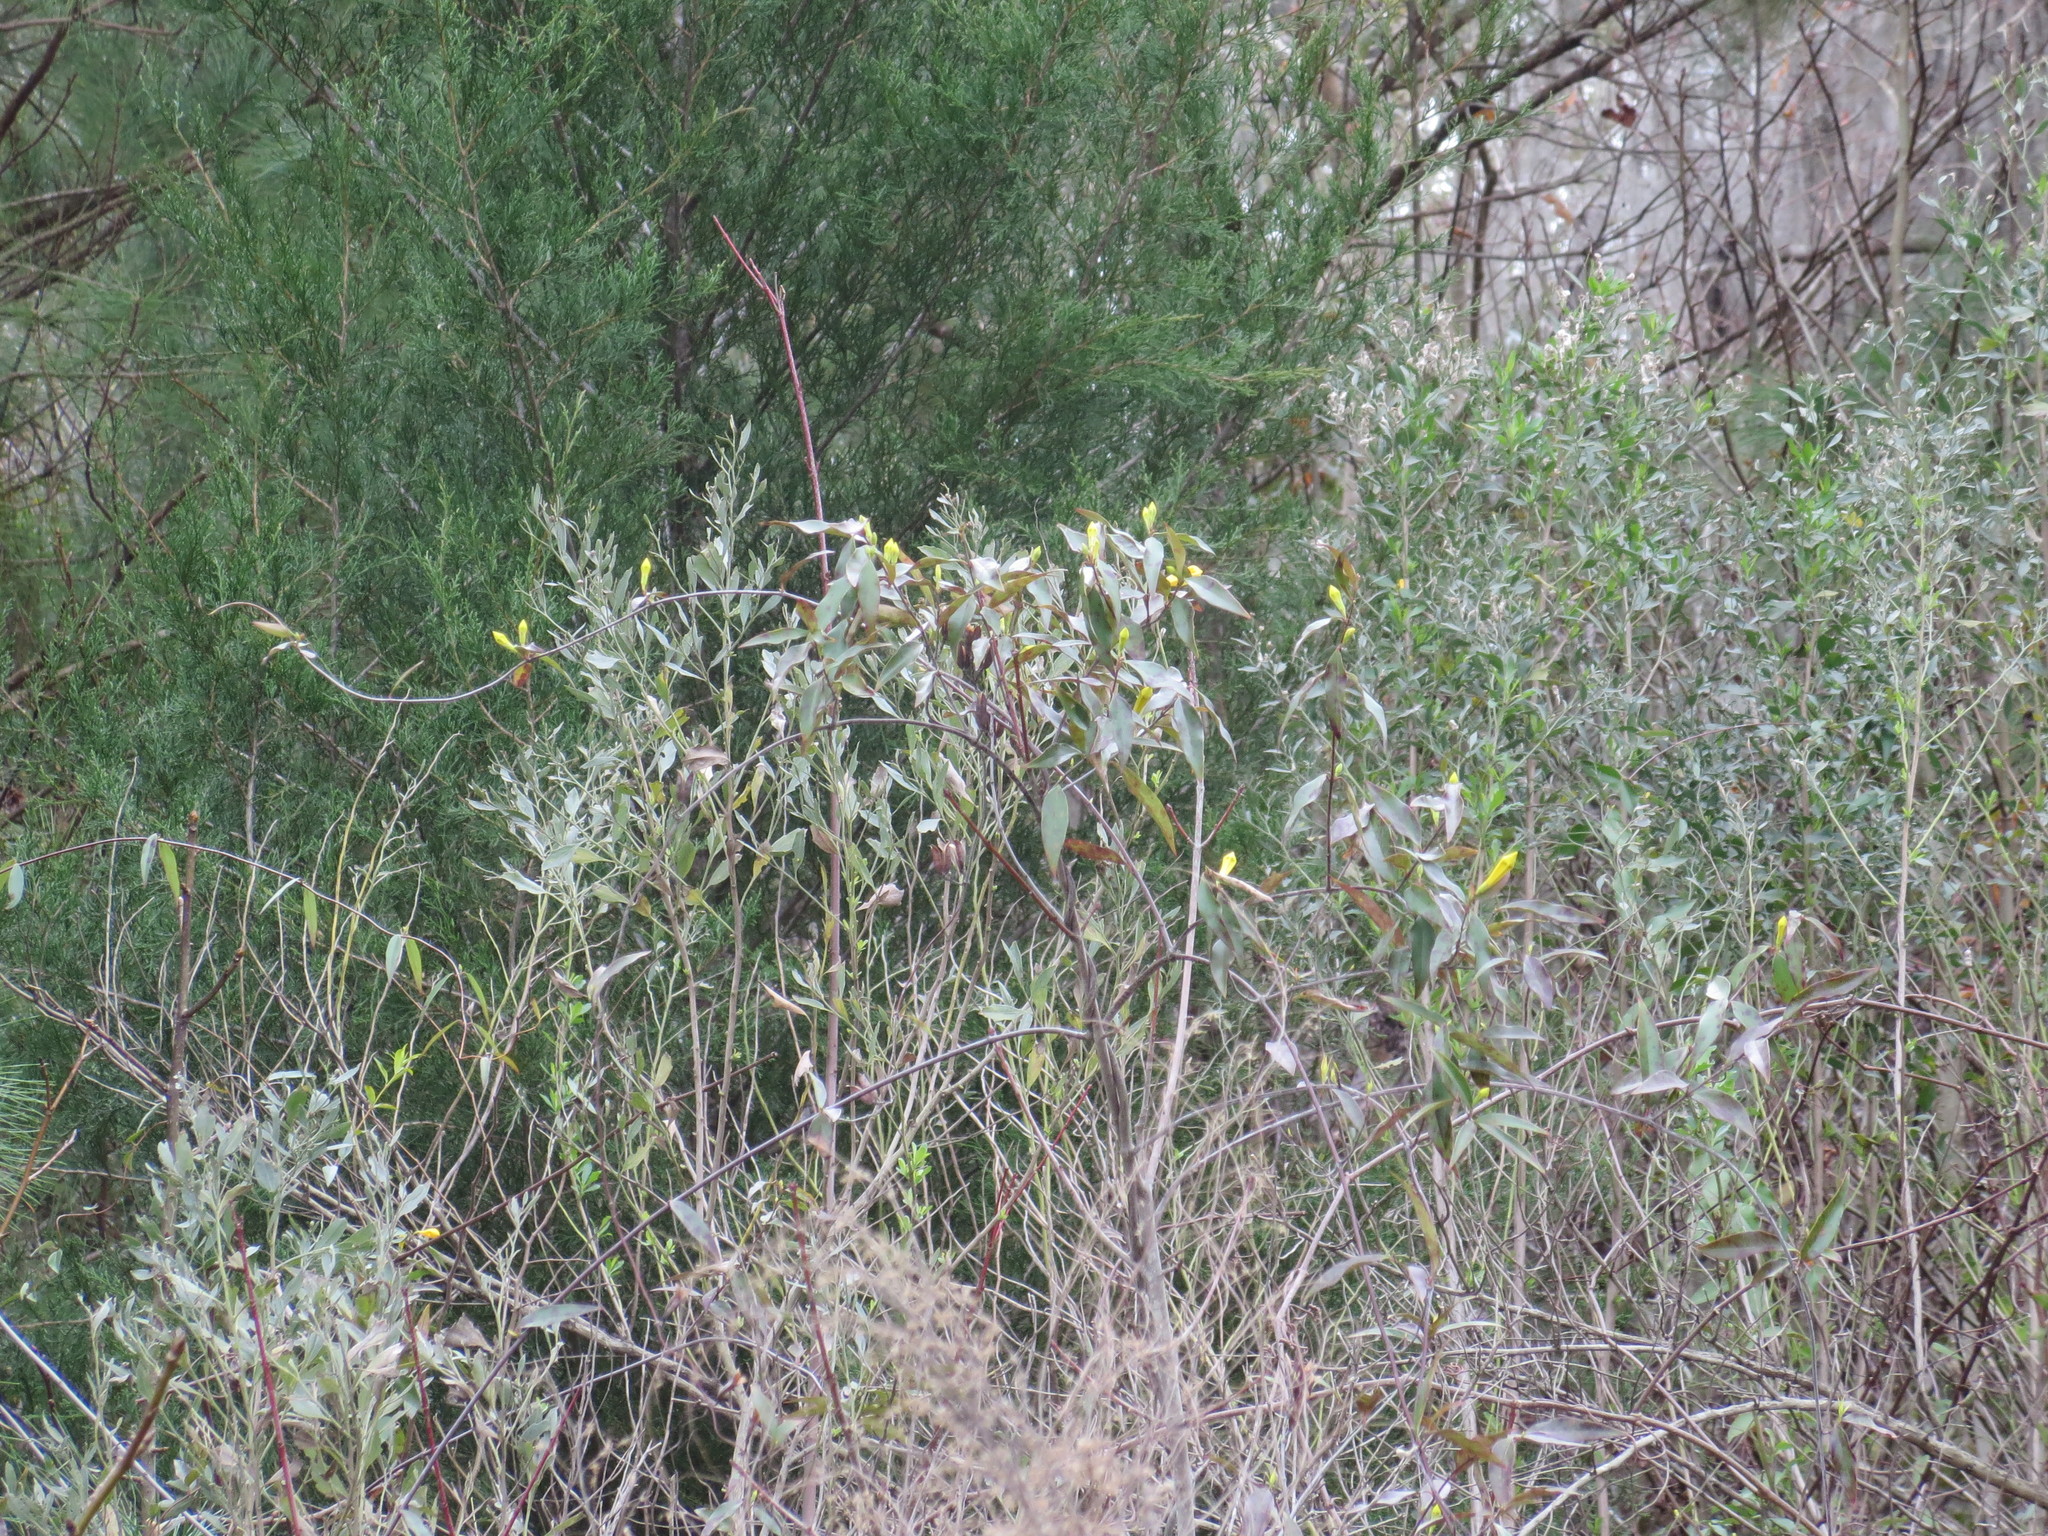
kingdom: Plantae
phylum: Tracheophyta
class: Magnoliopsida
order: Gentianales
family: Gelsemiaceae
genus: Gelsemium
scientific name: Gelsemium sempervirens
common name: Carolina-jasmine
